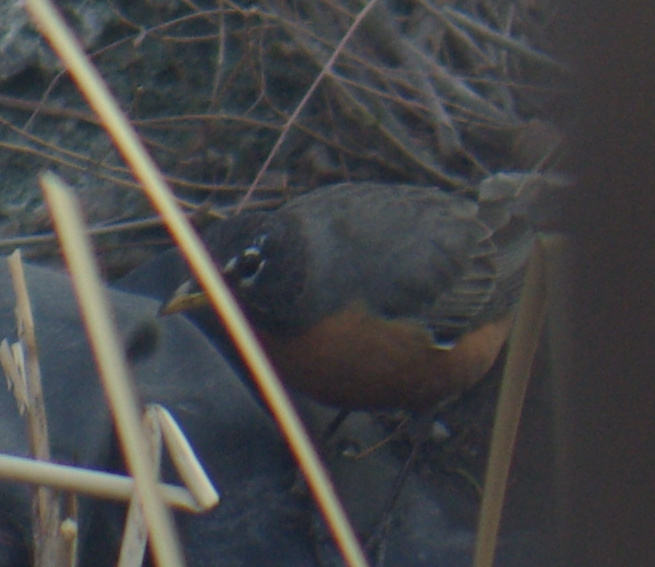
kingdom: Animalia
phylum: Chordata
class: Aves
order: Passeriformes
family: Turdidae
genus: Turdus
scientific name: Turdus migratorius
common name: American robin
